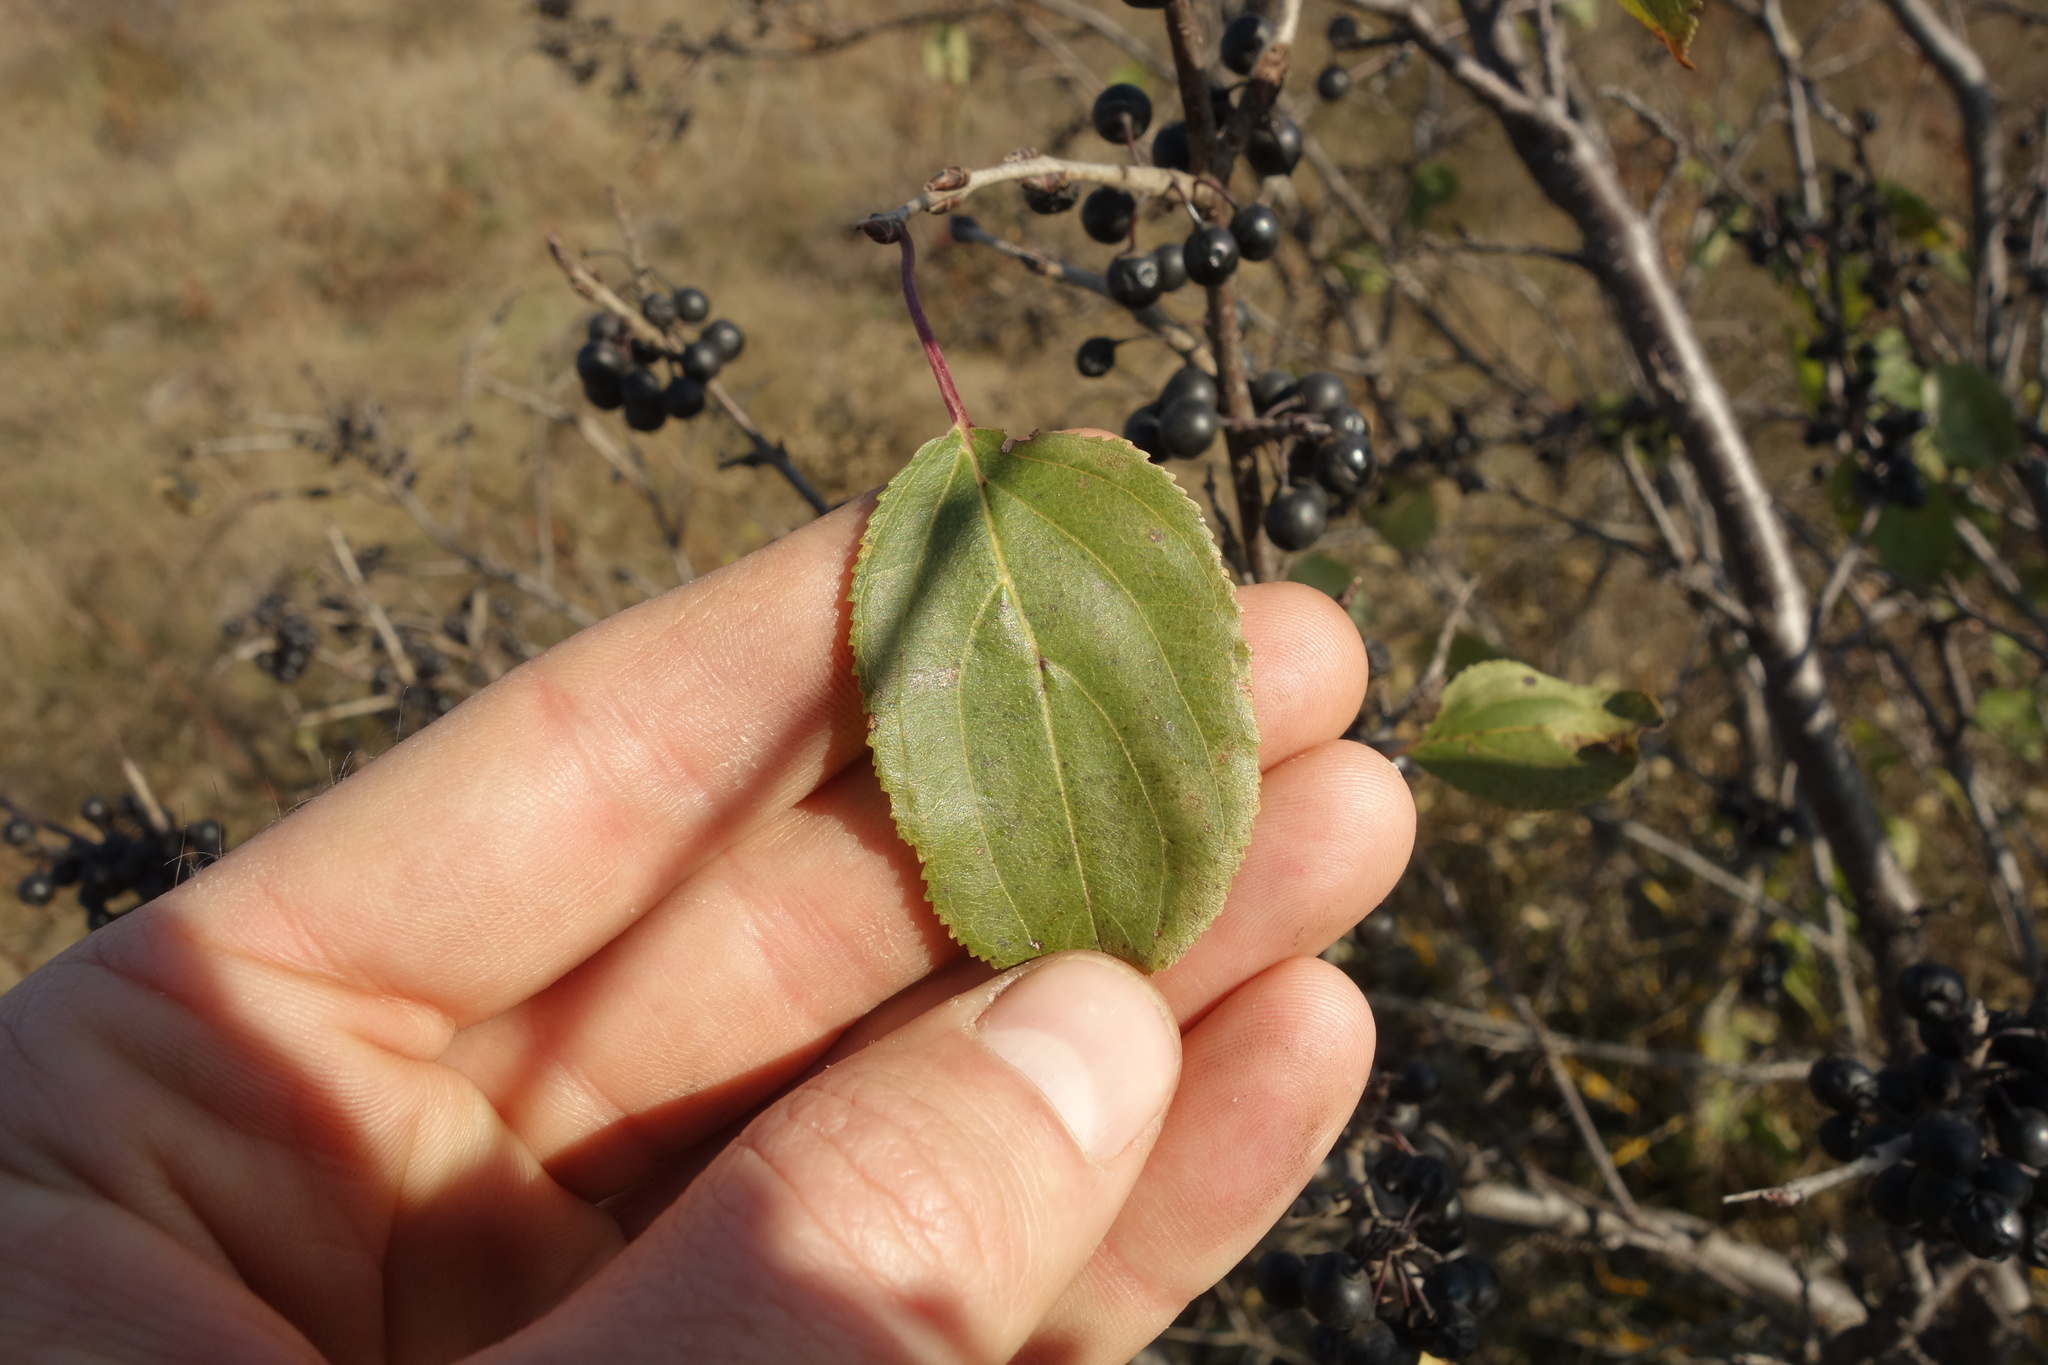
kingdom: Plantae
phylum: Tracheophyta
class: Magnoliopsida
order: Rosales
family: Rhamnaceae
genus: Rhamnus
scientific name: Rhamnus cathartica
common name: Common buckthorn
